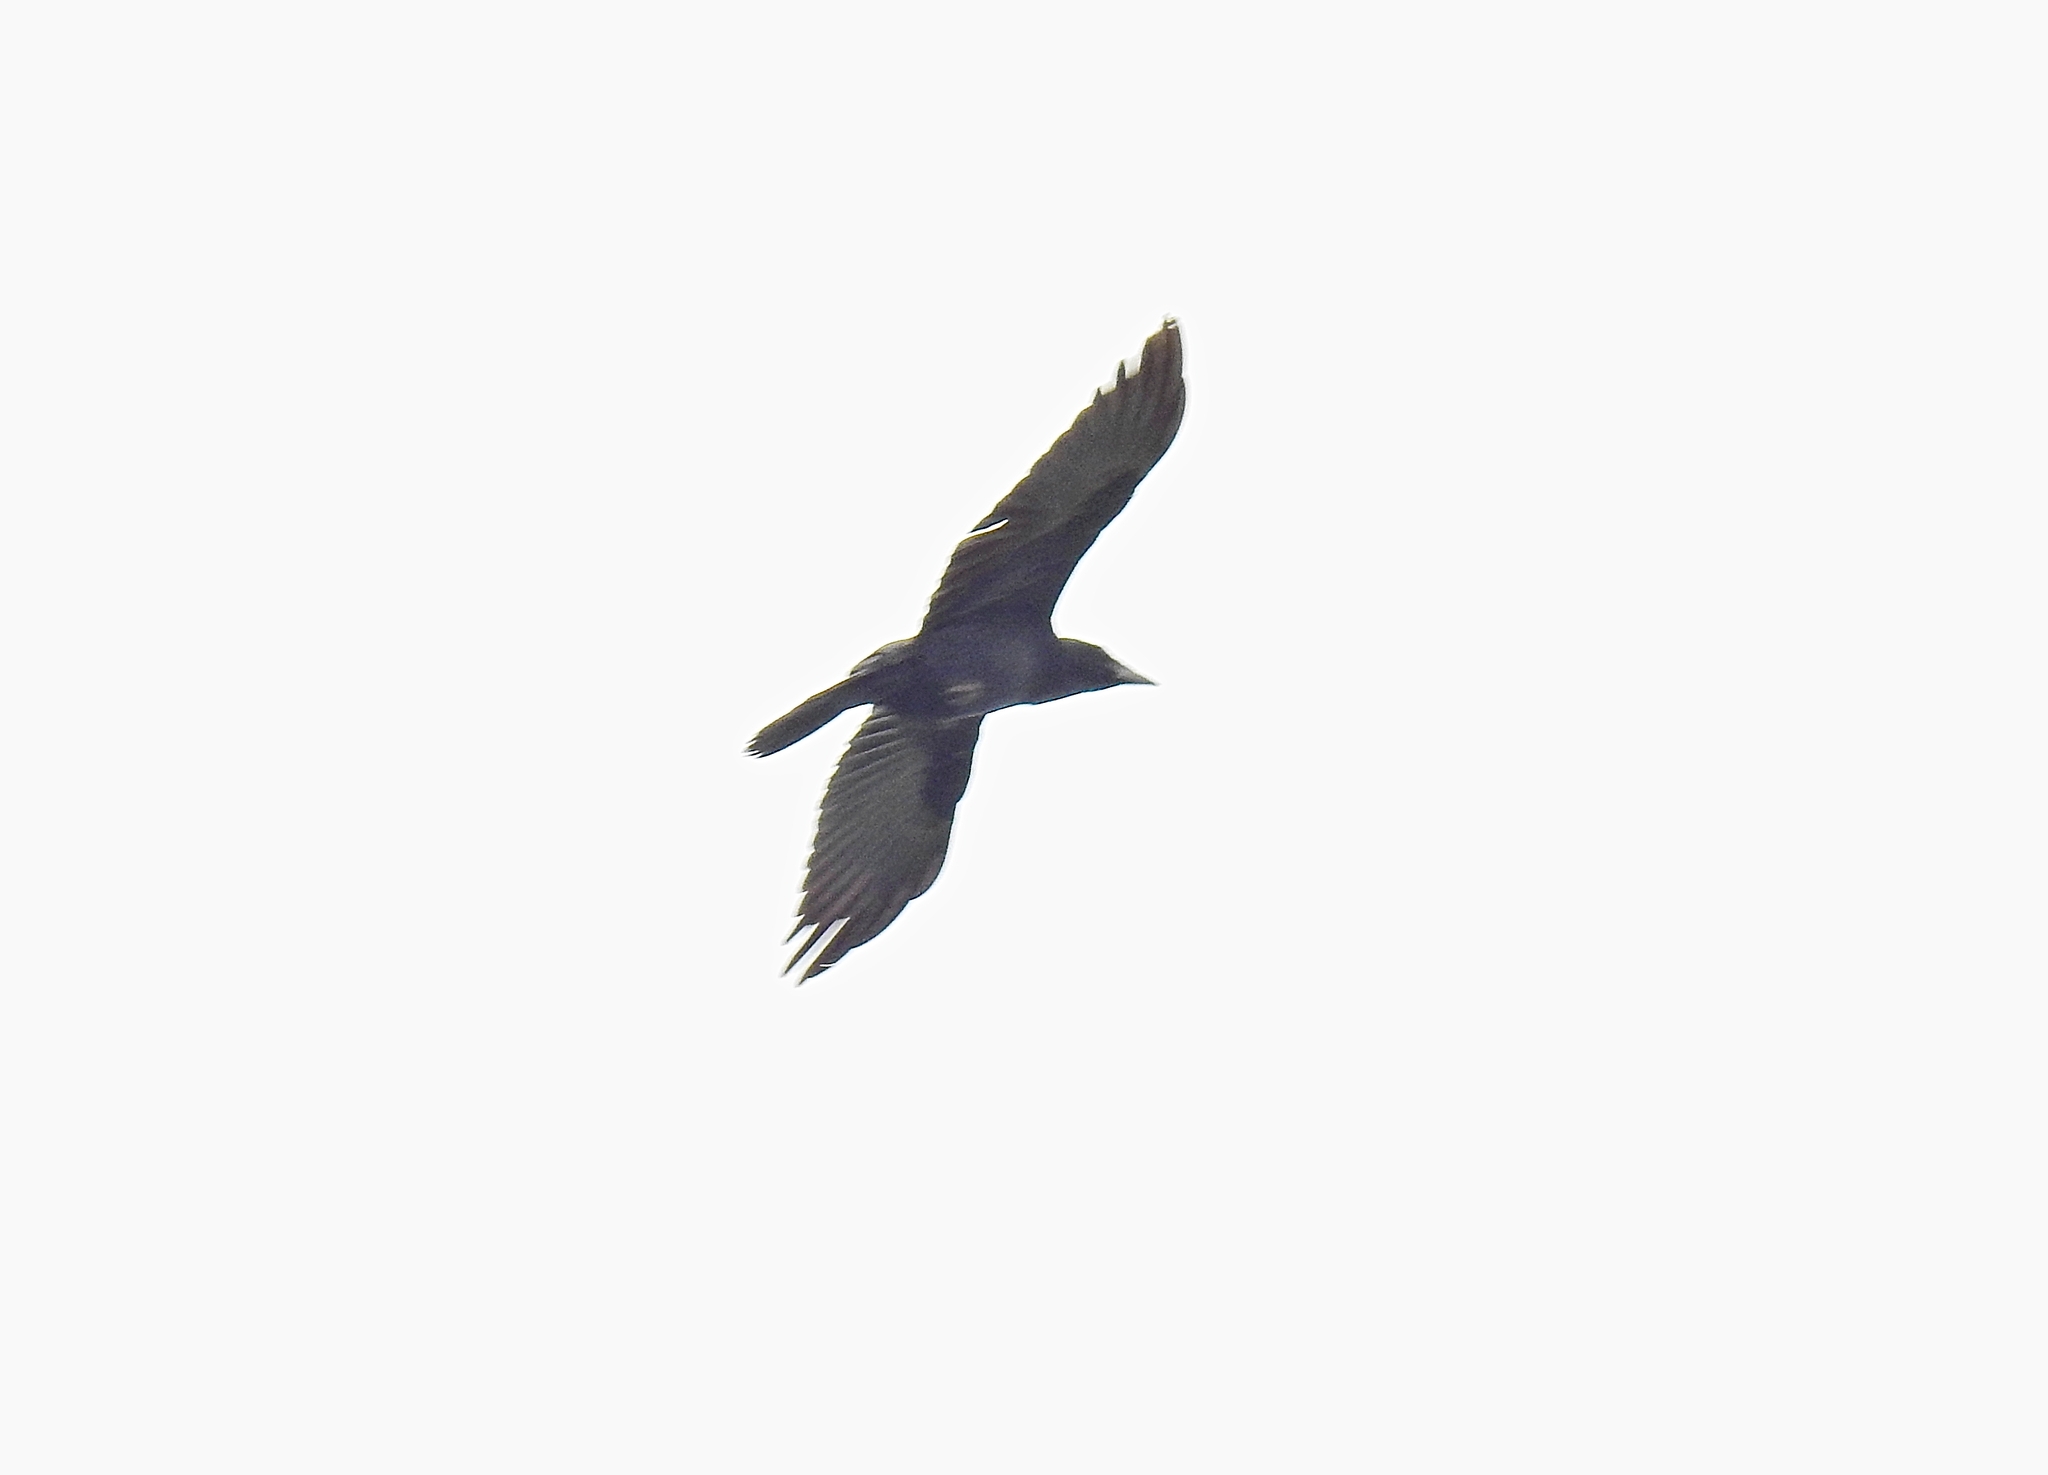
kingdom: Animalia
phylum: Chordata
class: Aves
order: Passeriformes
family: Corvidae
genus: Corvus
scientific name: Corvus frugilegus
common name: Rook
